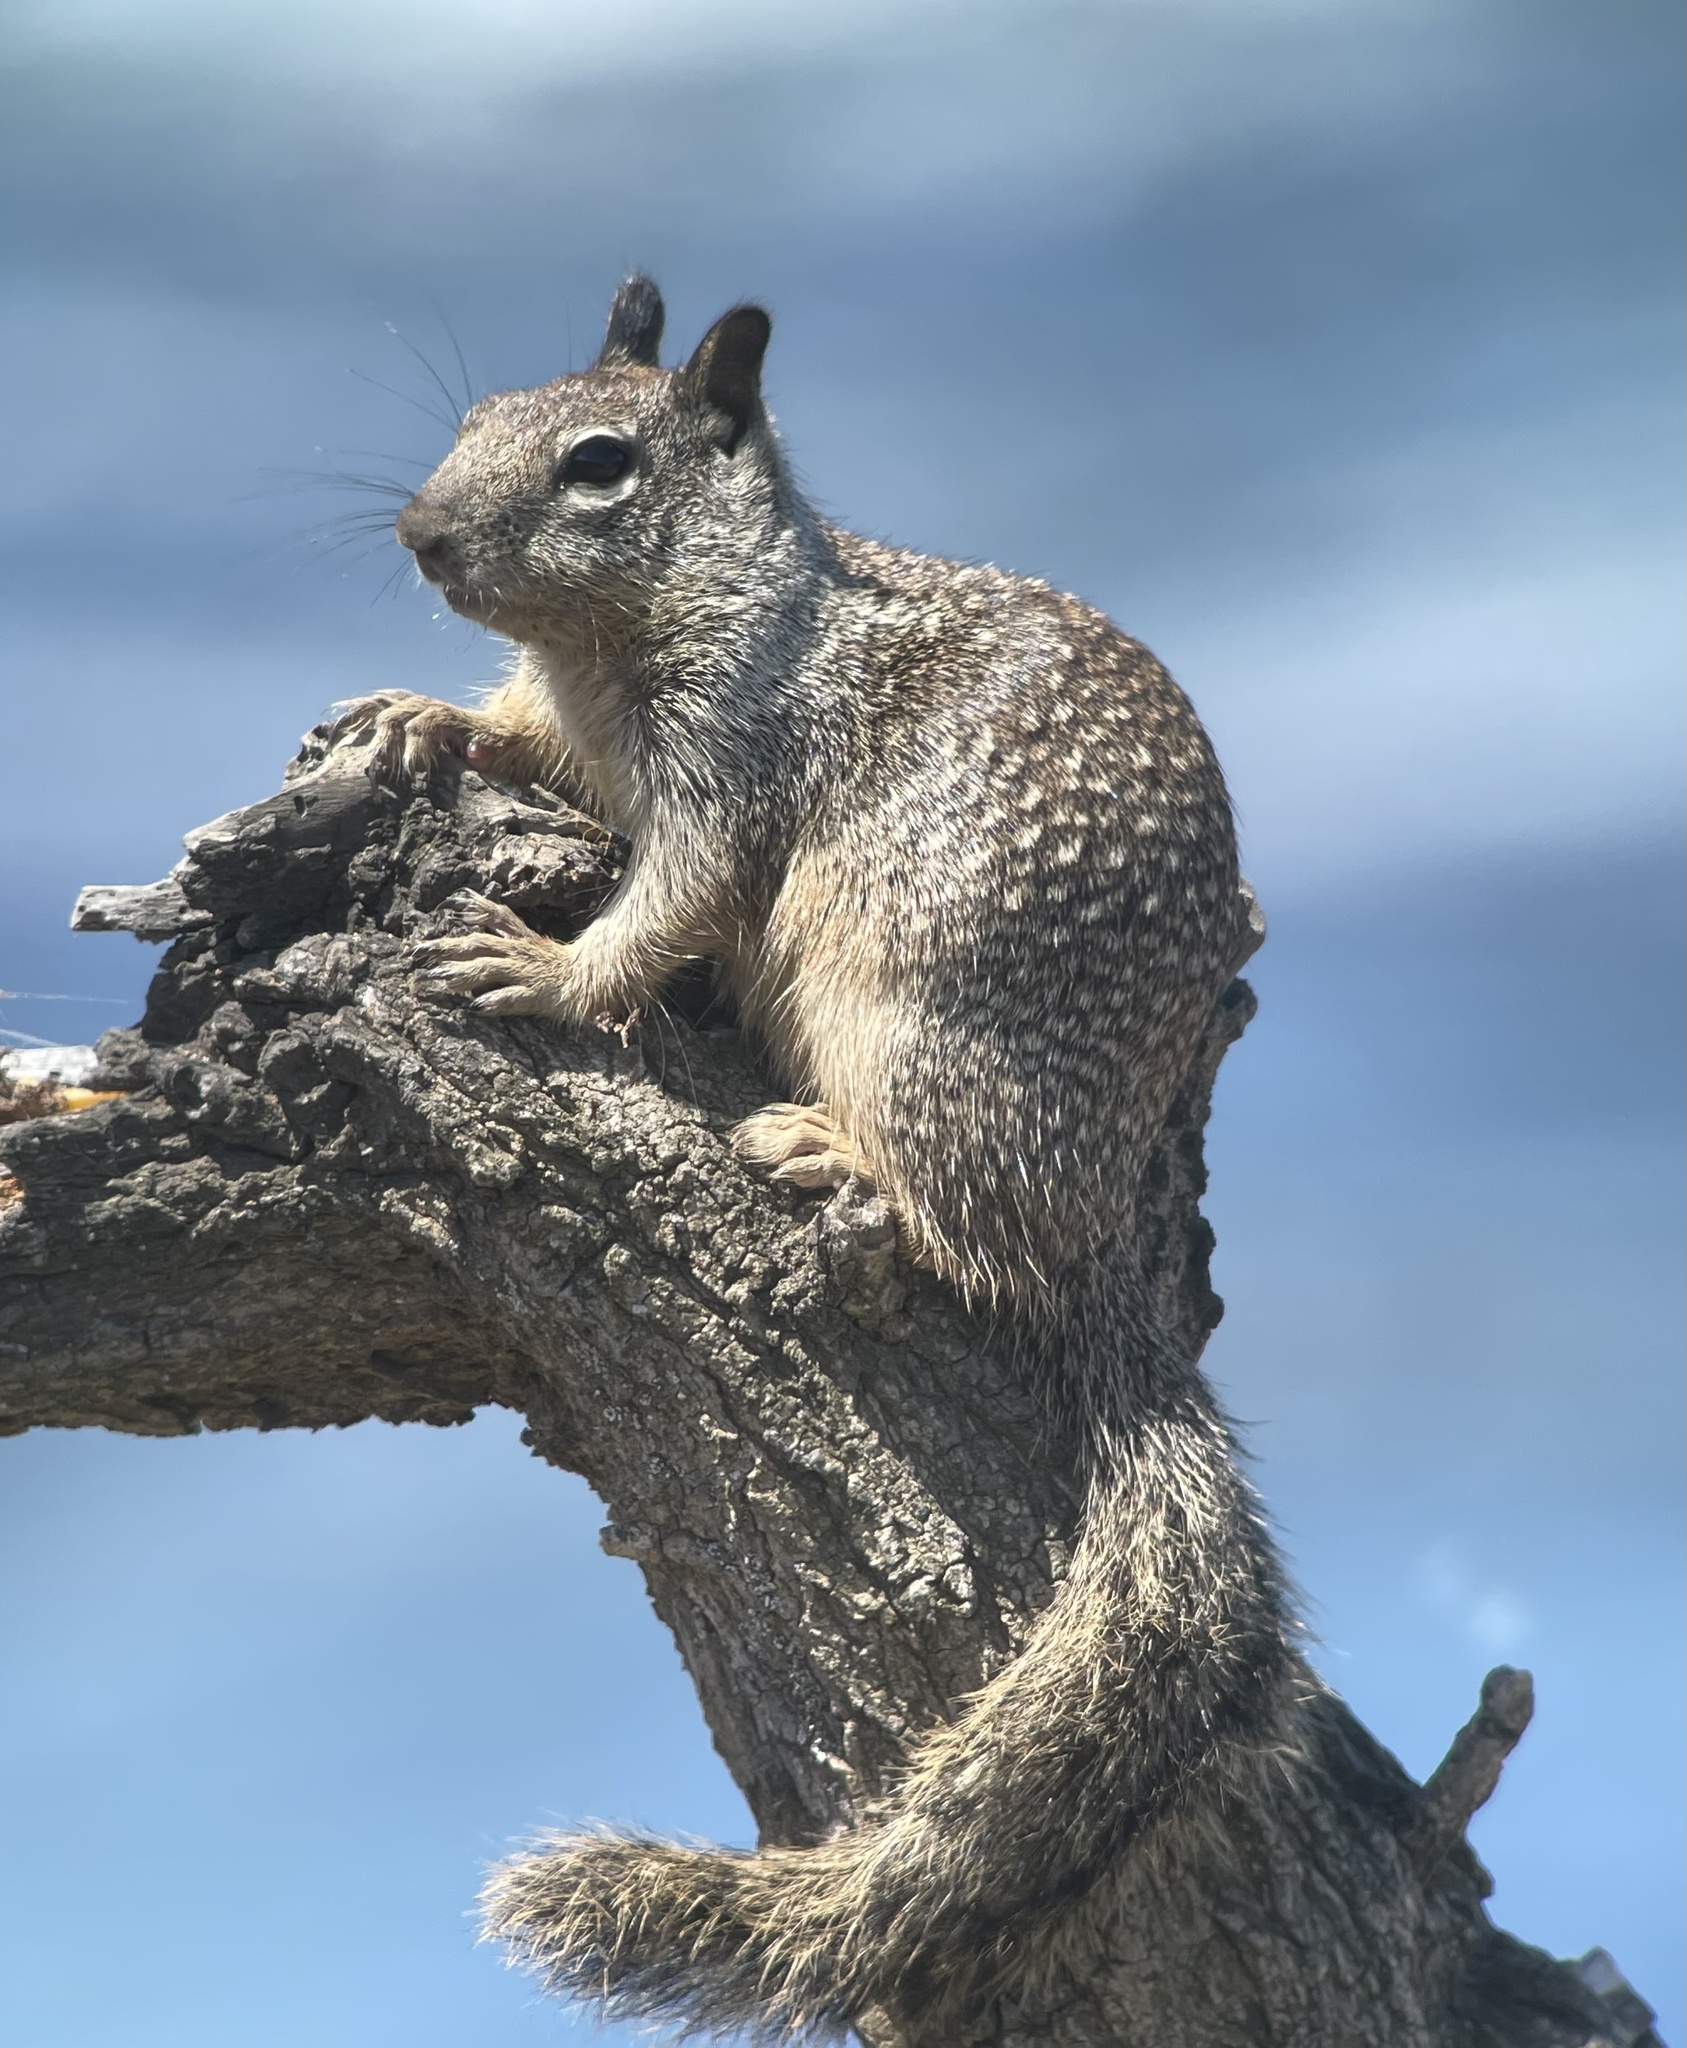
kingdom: Animalia
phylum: Chordata
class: Mammalia
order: Rodentia
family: Sciuridae
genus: Otospermophilus
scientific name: Otospermophilus beecheyi
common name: California ground squirrel
